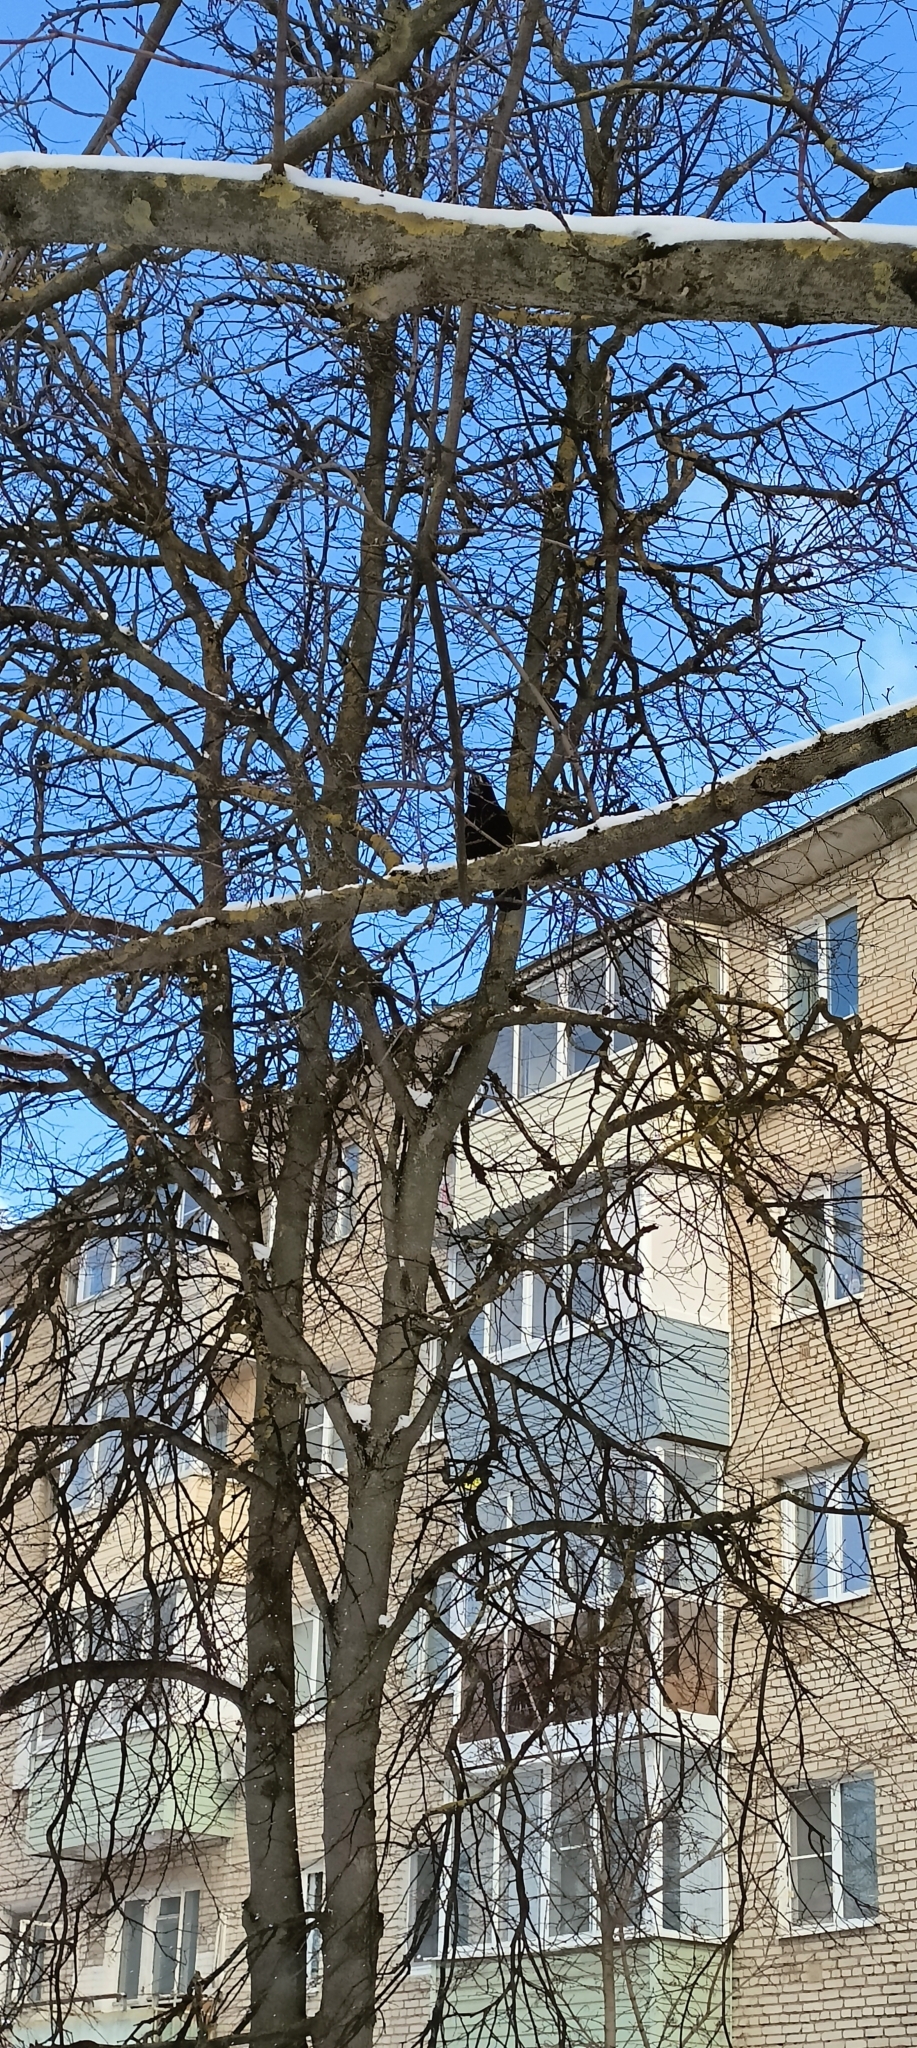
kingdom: Animalia
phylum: Chordata
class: Aves
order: Passeriformes
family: Corvidae
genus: Corvus
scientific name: Corvus frugilegus
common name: Rook
